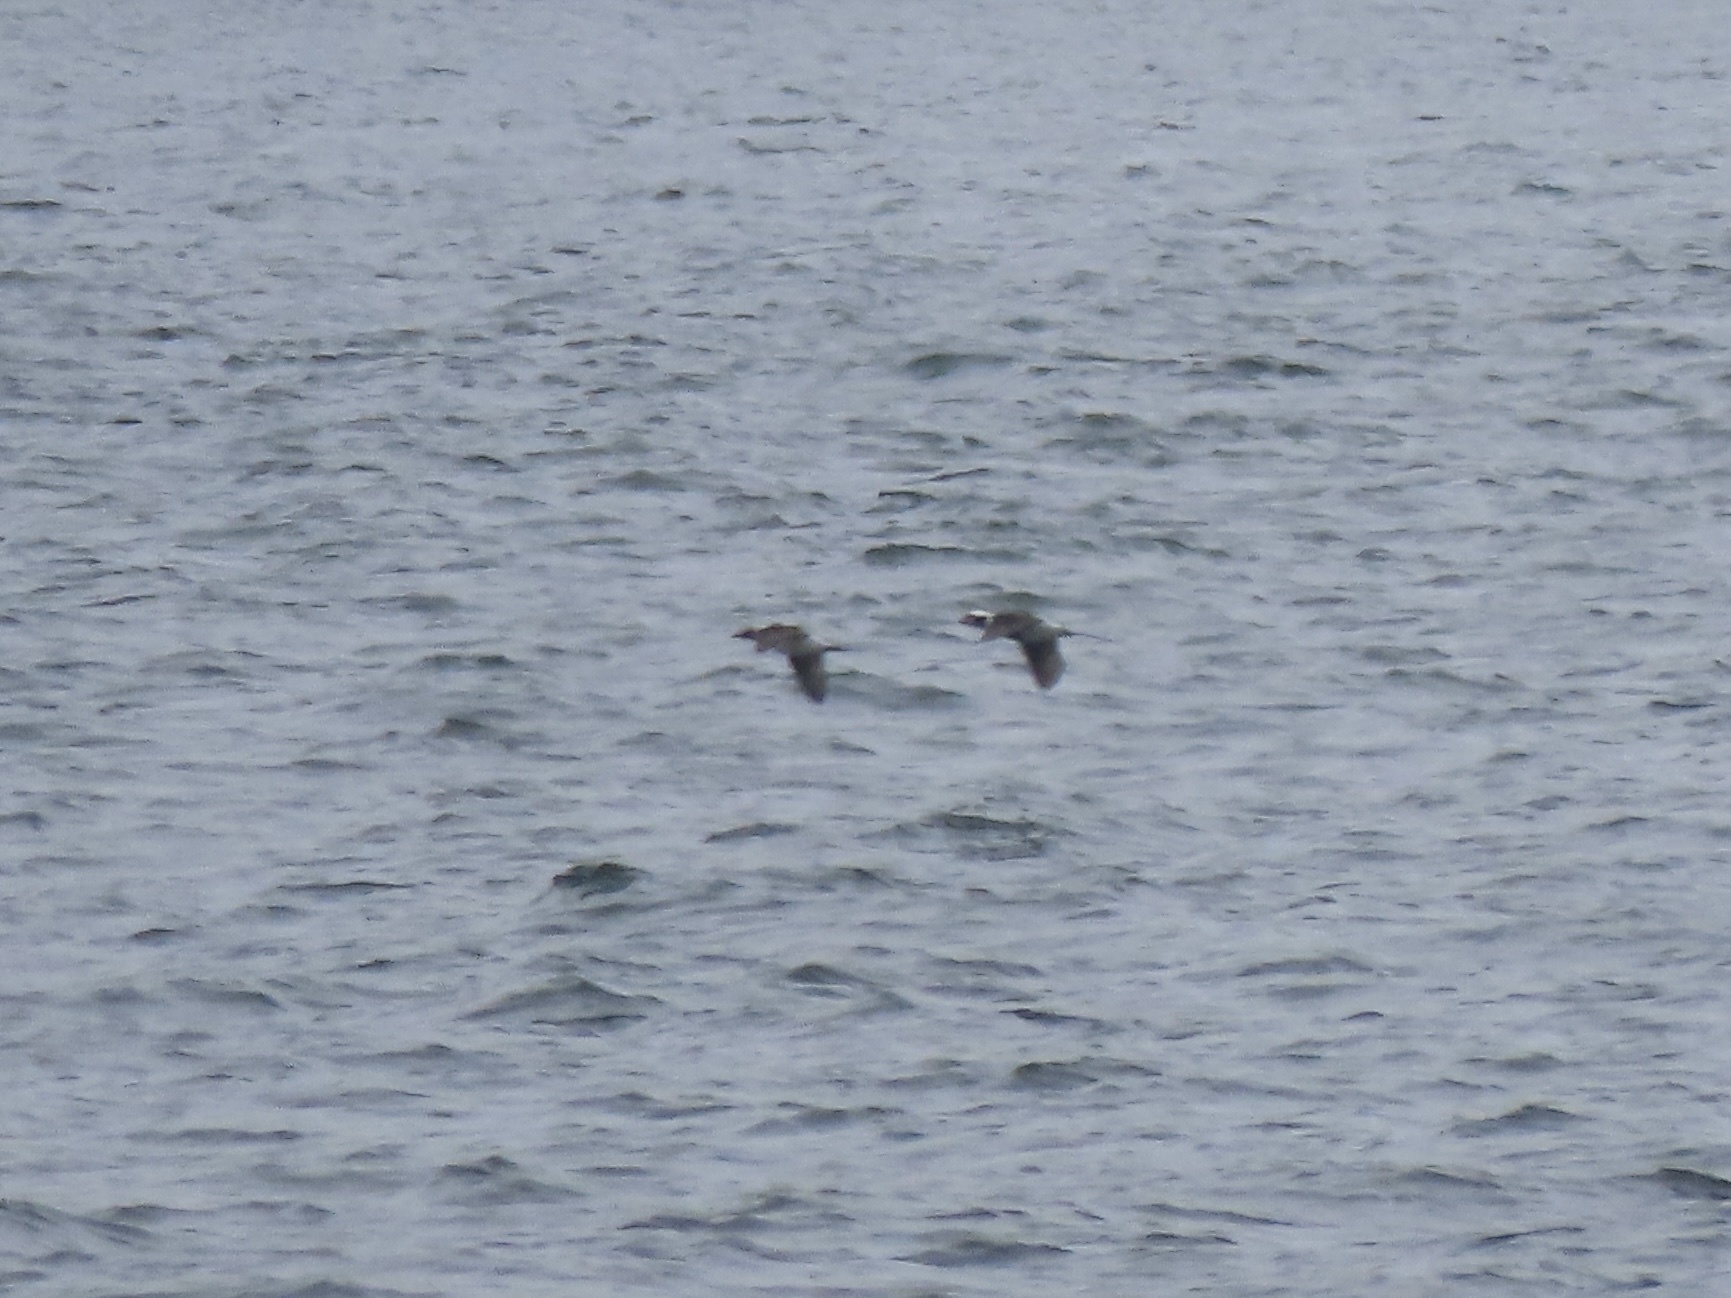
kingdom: Animalia
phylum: Chordata
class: Aves
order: Anseriformes
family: Anatidae
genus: Clangula
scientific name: Clangula hyemalis
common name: Long-tailed duck
